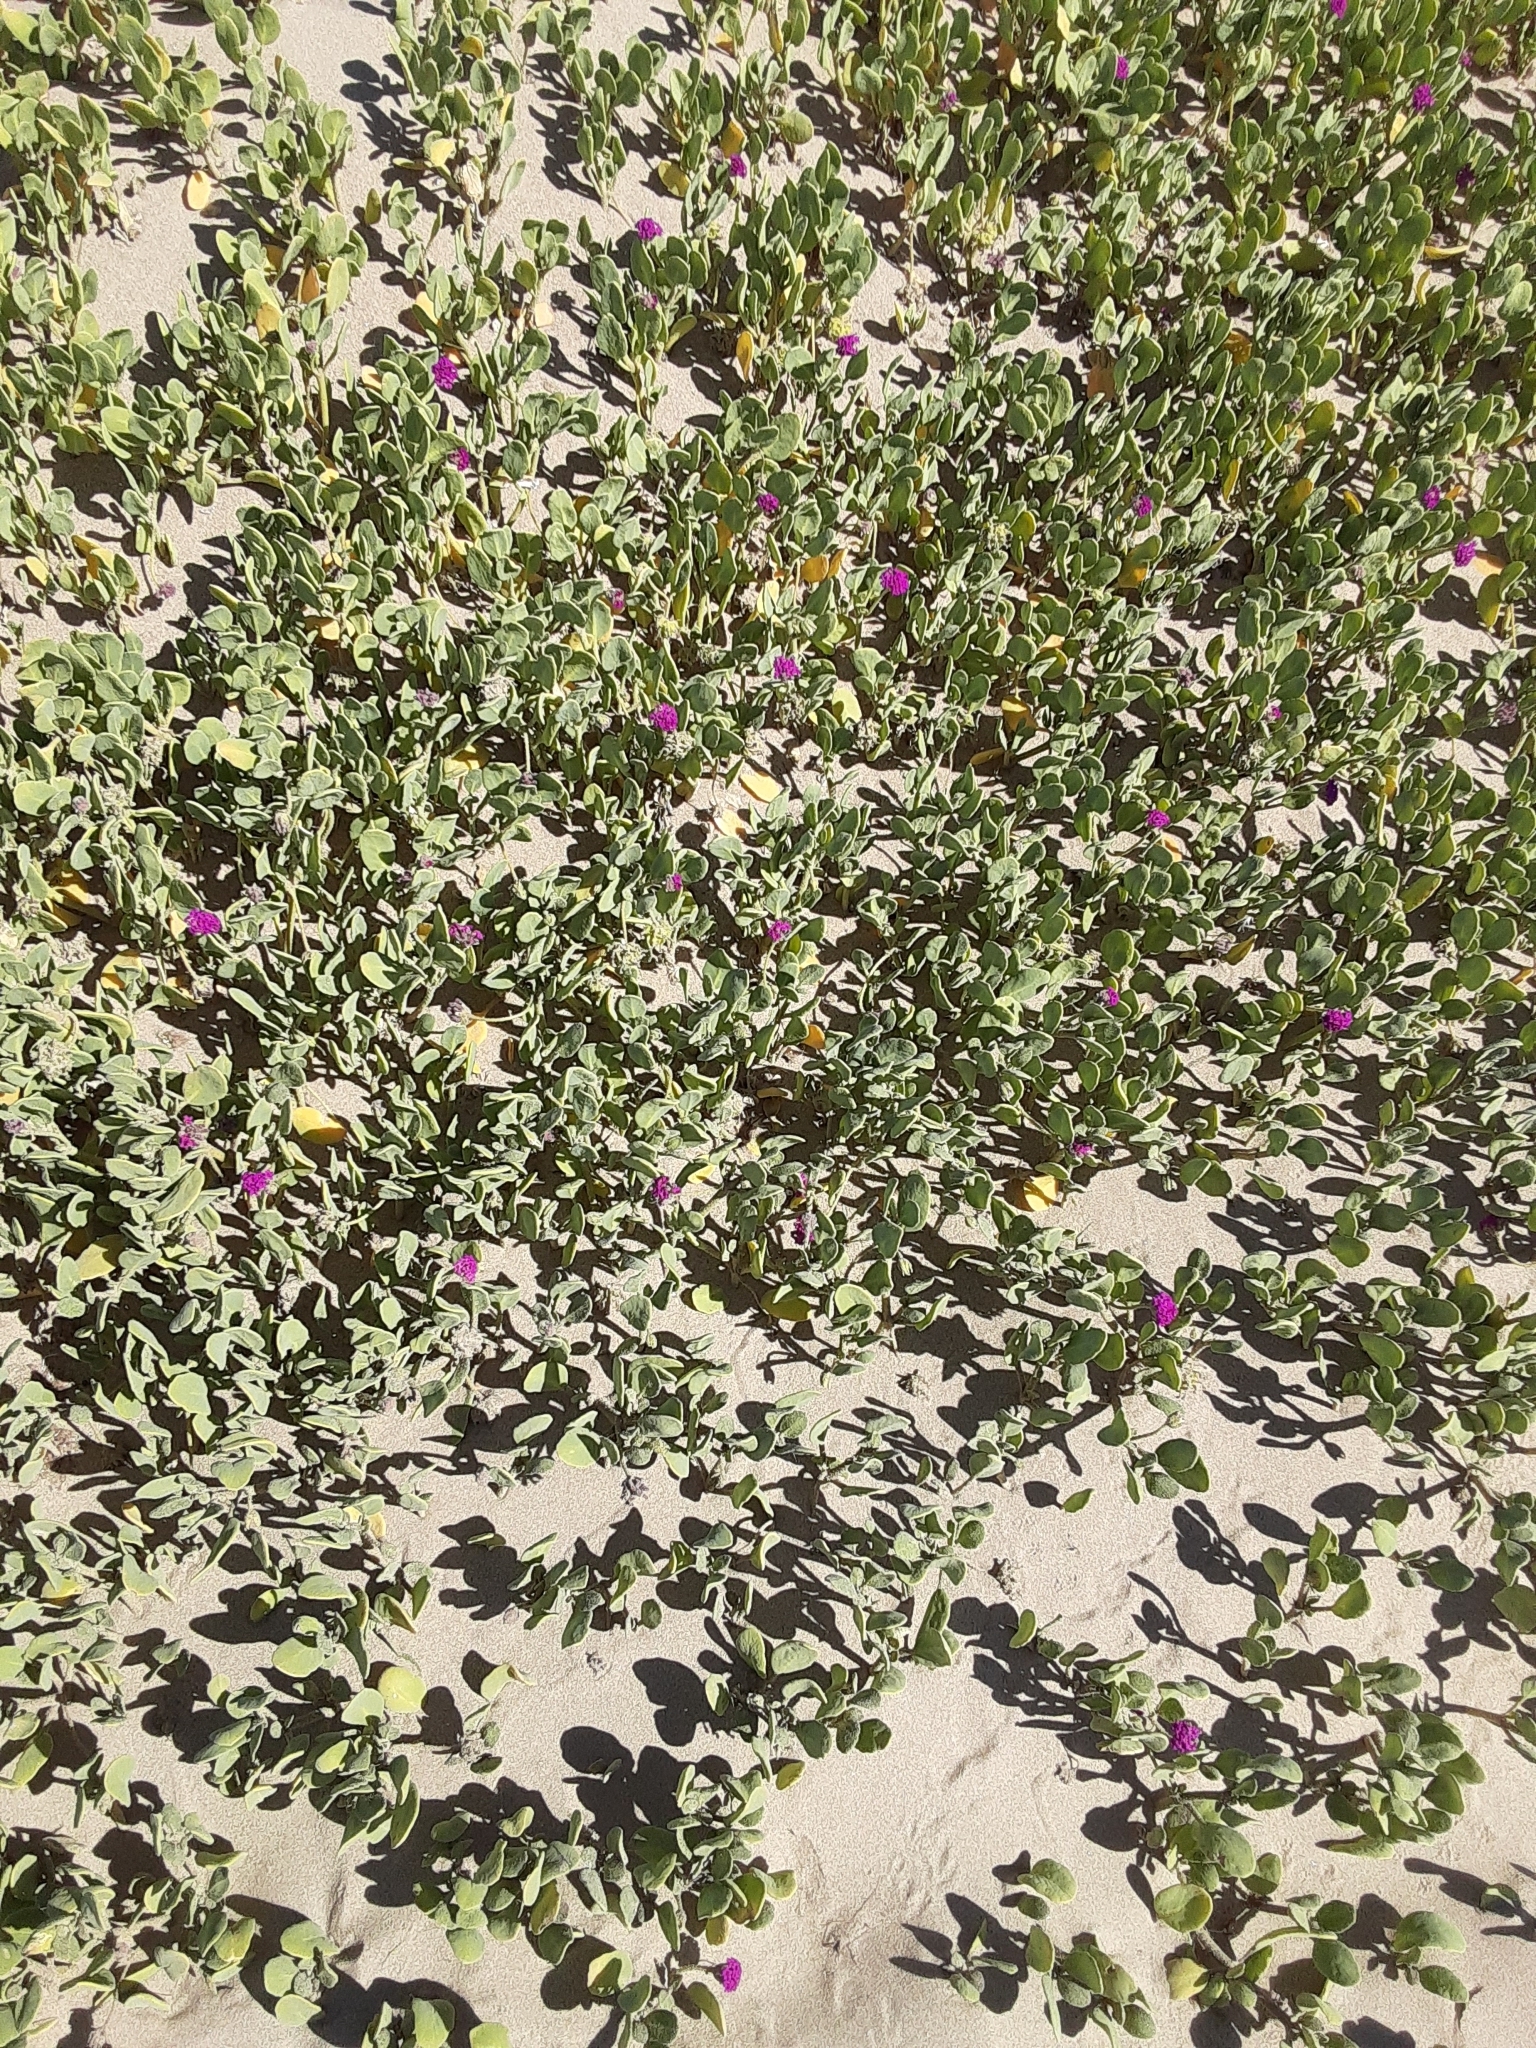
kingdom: Plantae
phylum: Tracheophyta
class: Magnoliopsida
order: Caryophyllales
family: Nyctaginaceae
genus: Abronia
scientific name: Abronia maritima
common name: Red sand-verbena
